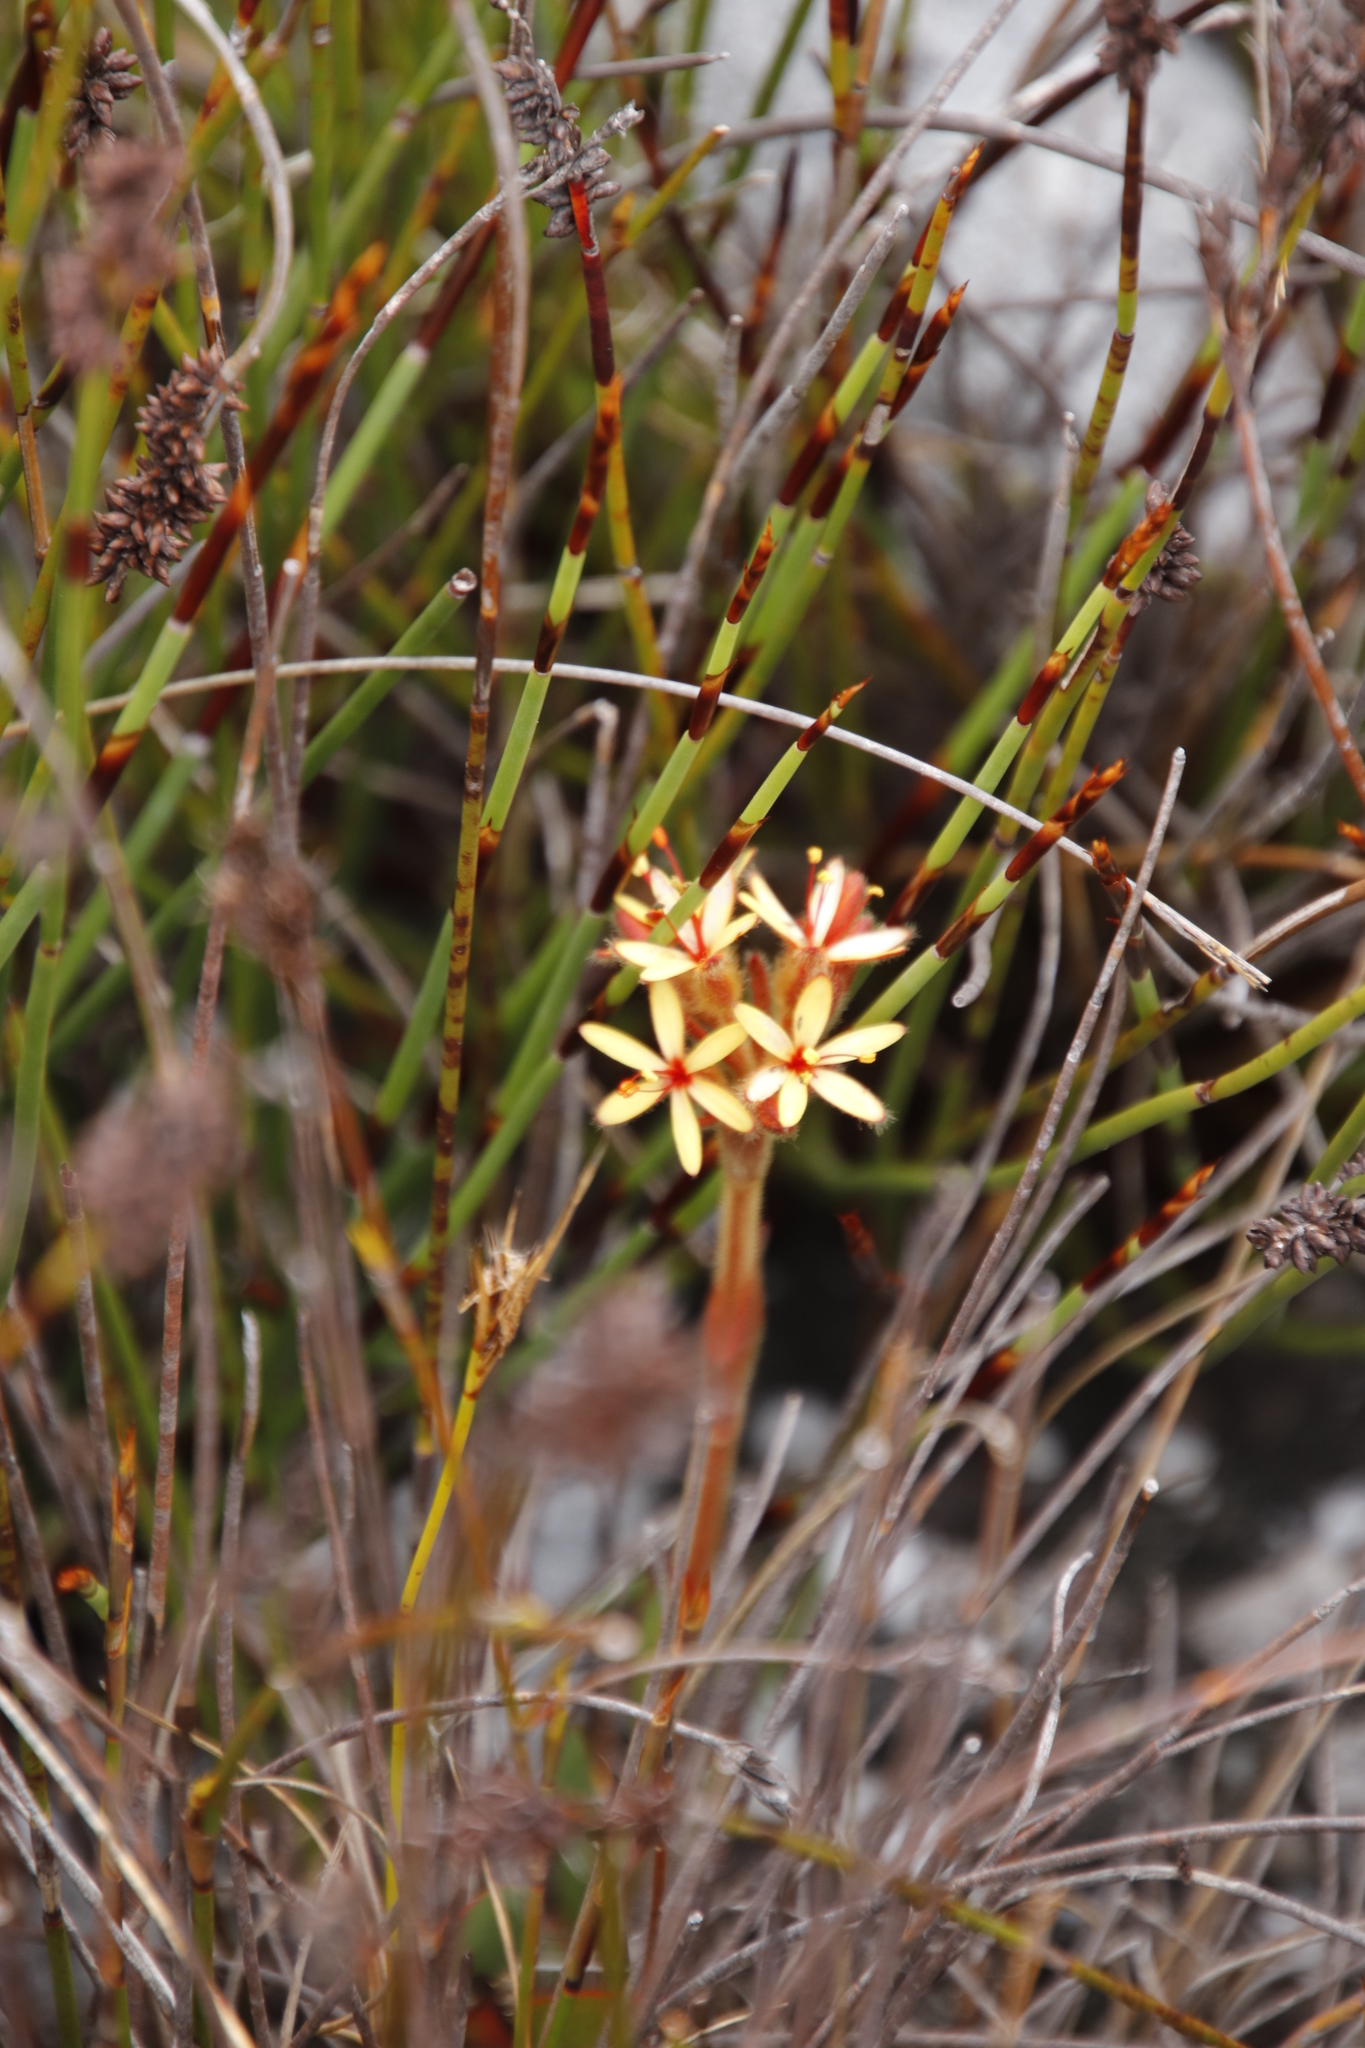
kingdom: Plantae
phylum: Tracheophyta
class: Liliopsida
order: Commelinales
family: Haemodoraceae
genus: Dilatris
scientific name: Dilatris viscosa
